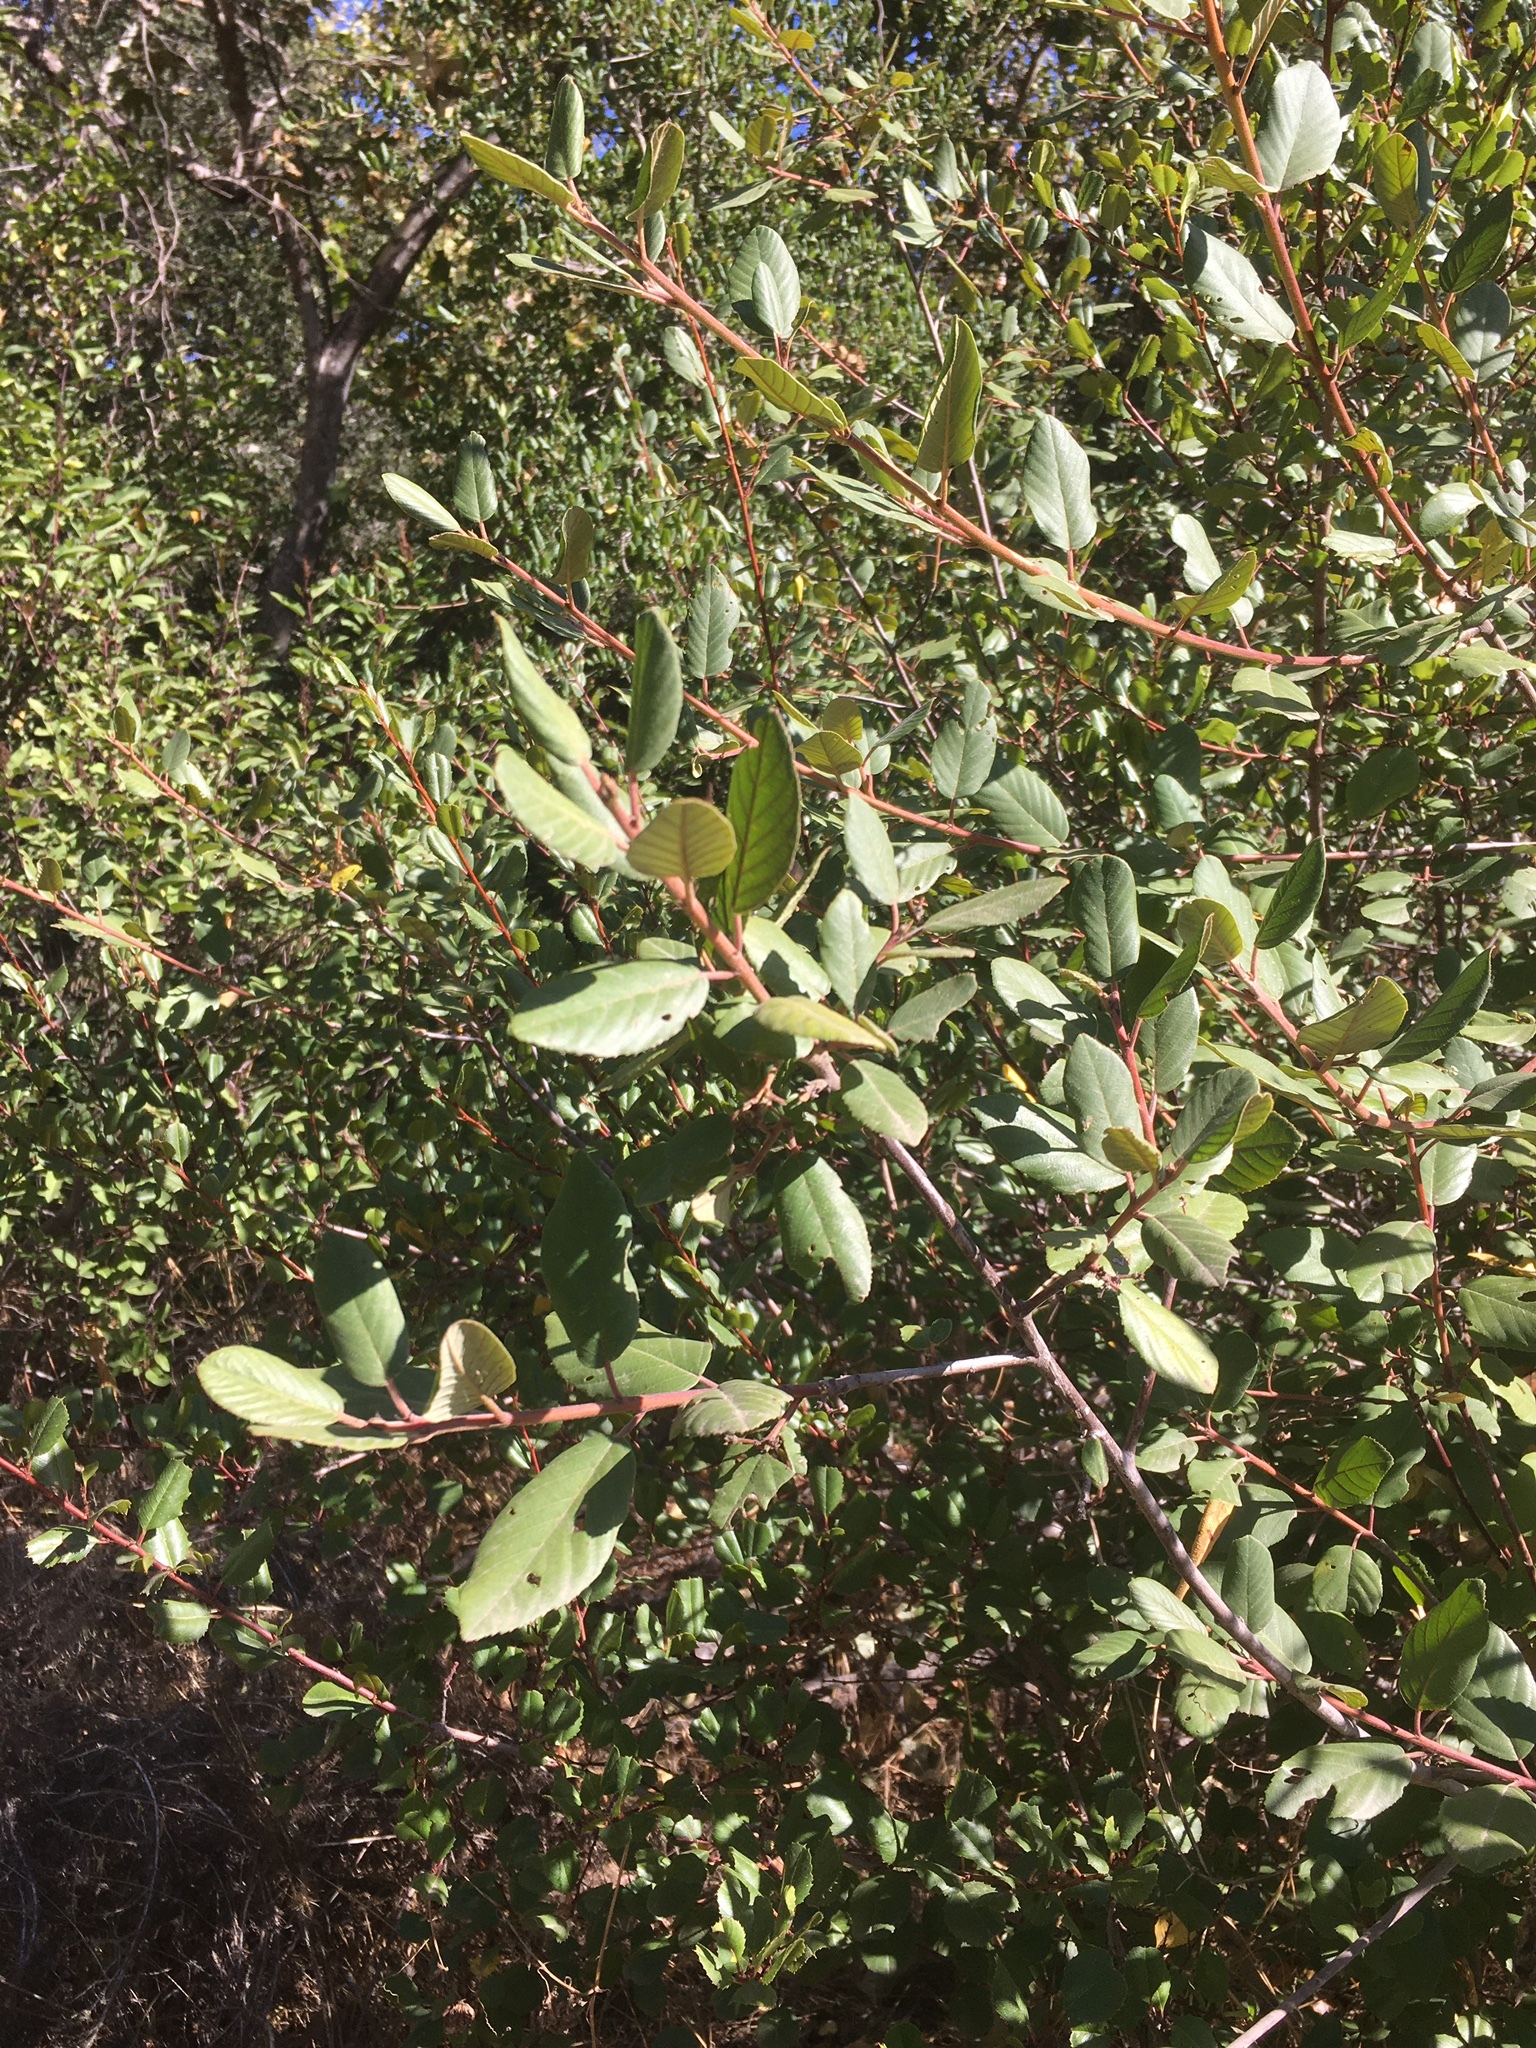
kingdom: Plantae
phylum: Tracheophyta
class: Magnoliopsida
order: Rosales
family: Rhamnaceae
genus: Frangula
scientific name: Frangula californica
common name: California buckthorn
